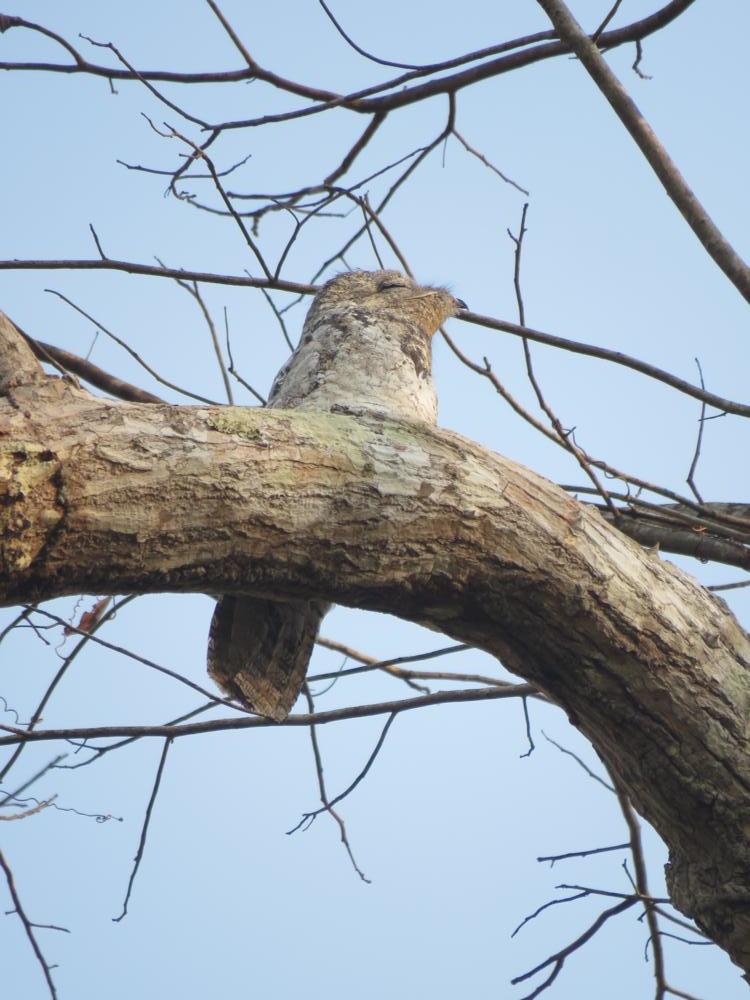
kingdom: Animalia
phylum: Chordata
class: Aves
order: Nyctibiiformes
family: Nyctibiidae
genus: Nyctibius
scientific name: Nyctibius grandis
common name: Great potoo
